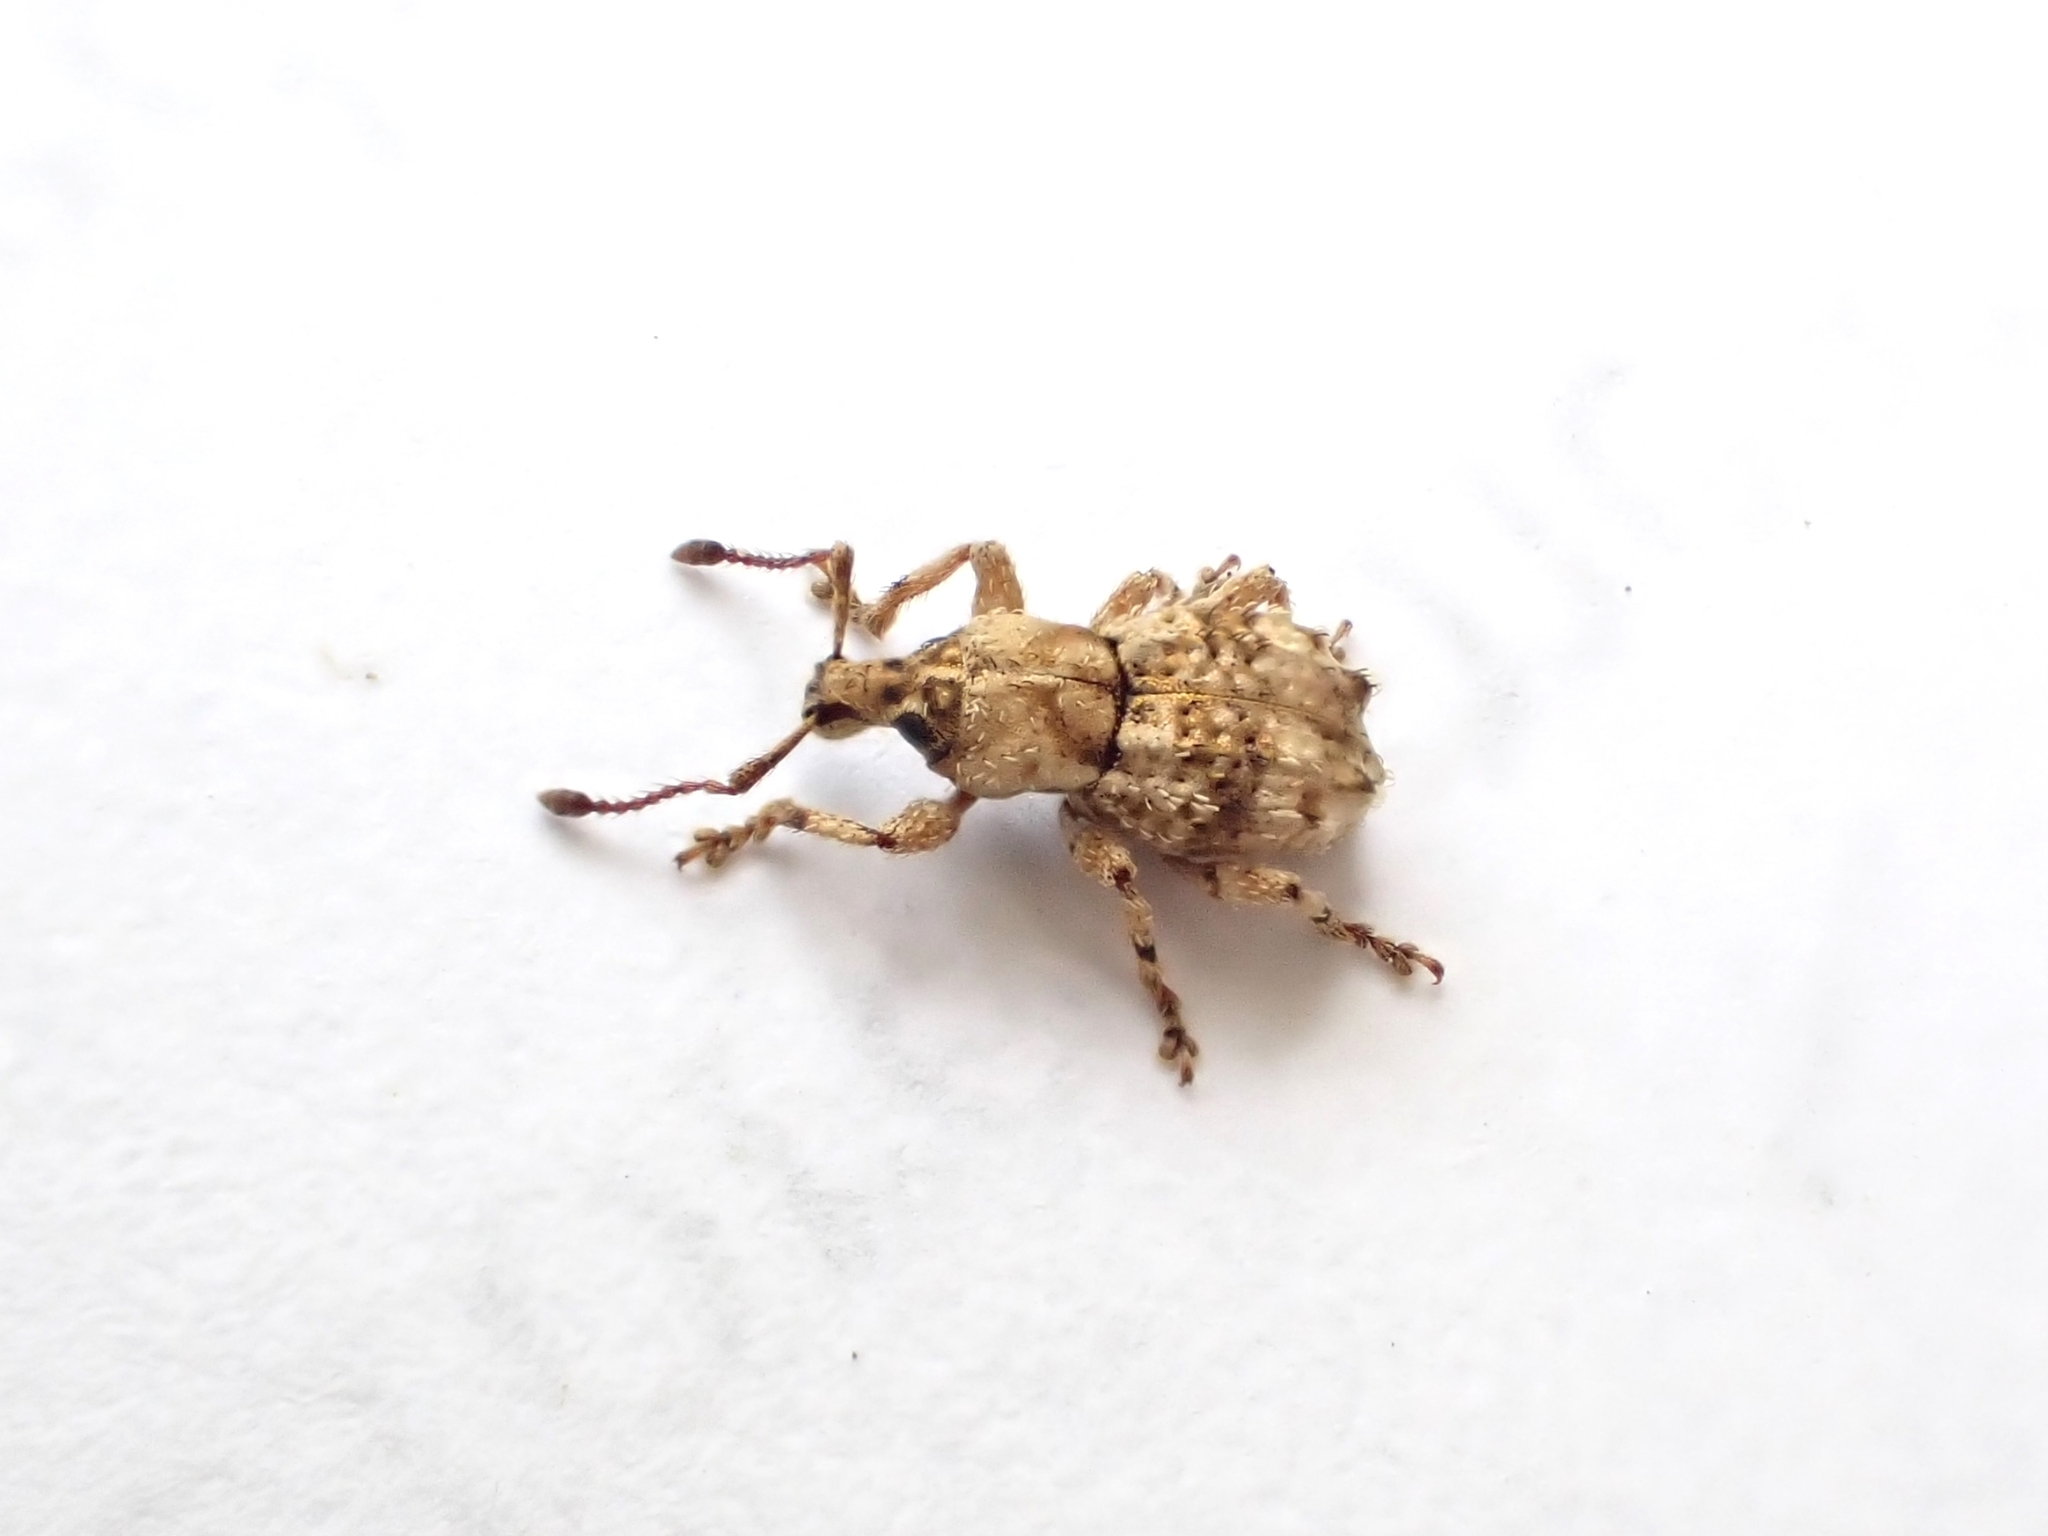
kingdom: Animalia
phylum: Arthropoda
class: Insecta
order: Coleoptera
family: Curculionidae
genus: Brachyolus
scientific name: Brachyolus punctatus
